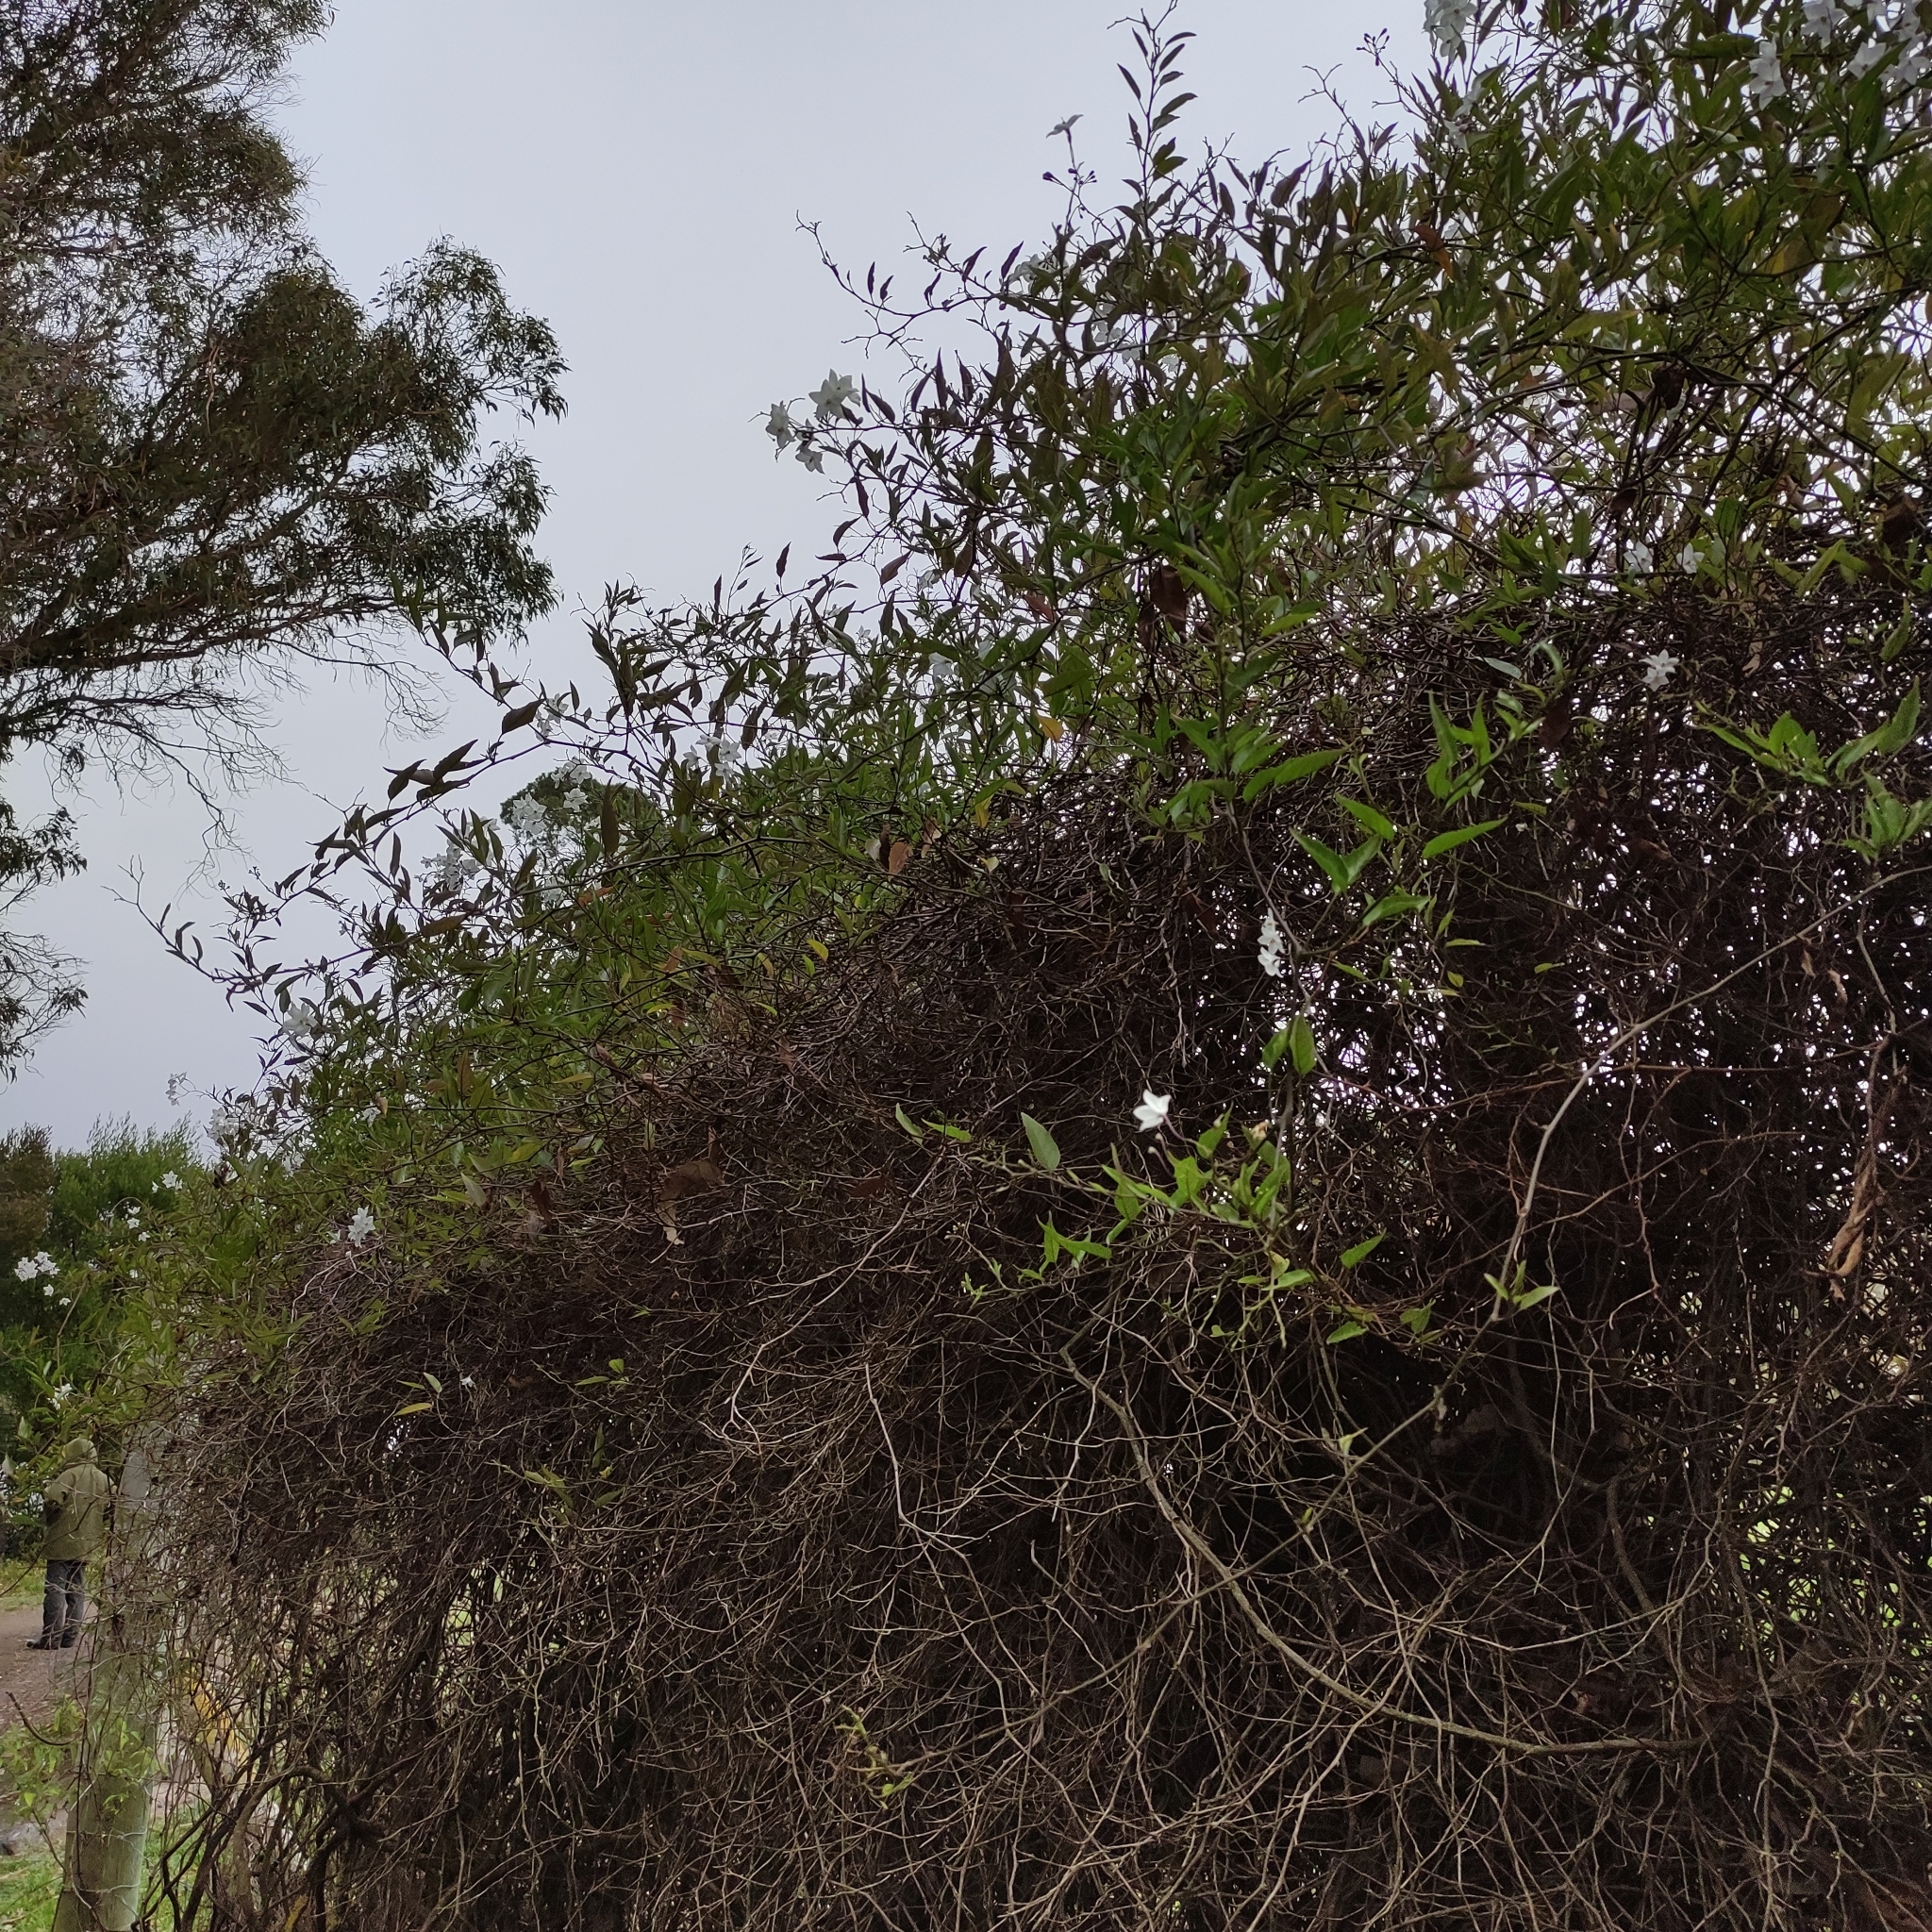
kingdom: Plantae
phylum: Tracheophyta
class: Magnoliopsida
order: Solanales
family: Solanaceae
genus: Solanum
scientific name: Solanum laxum
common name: Nightshade
